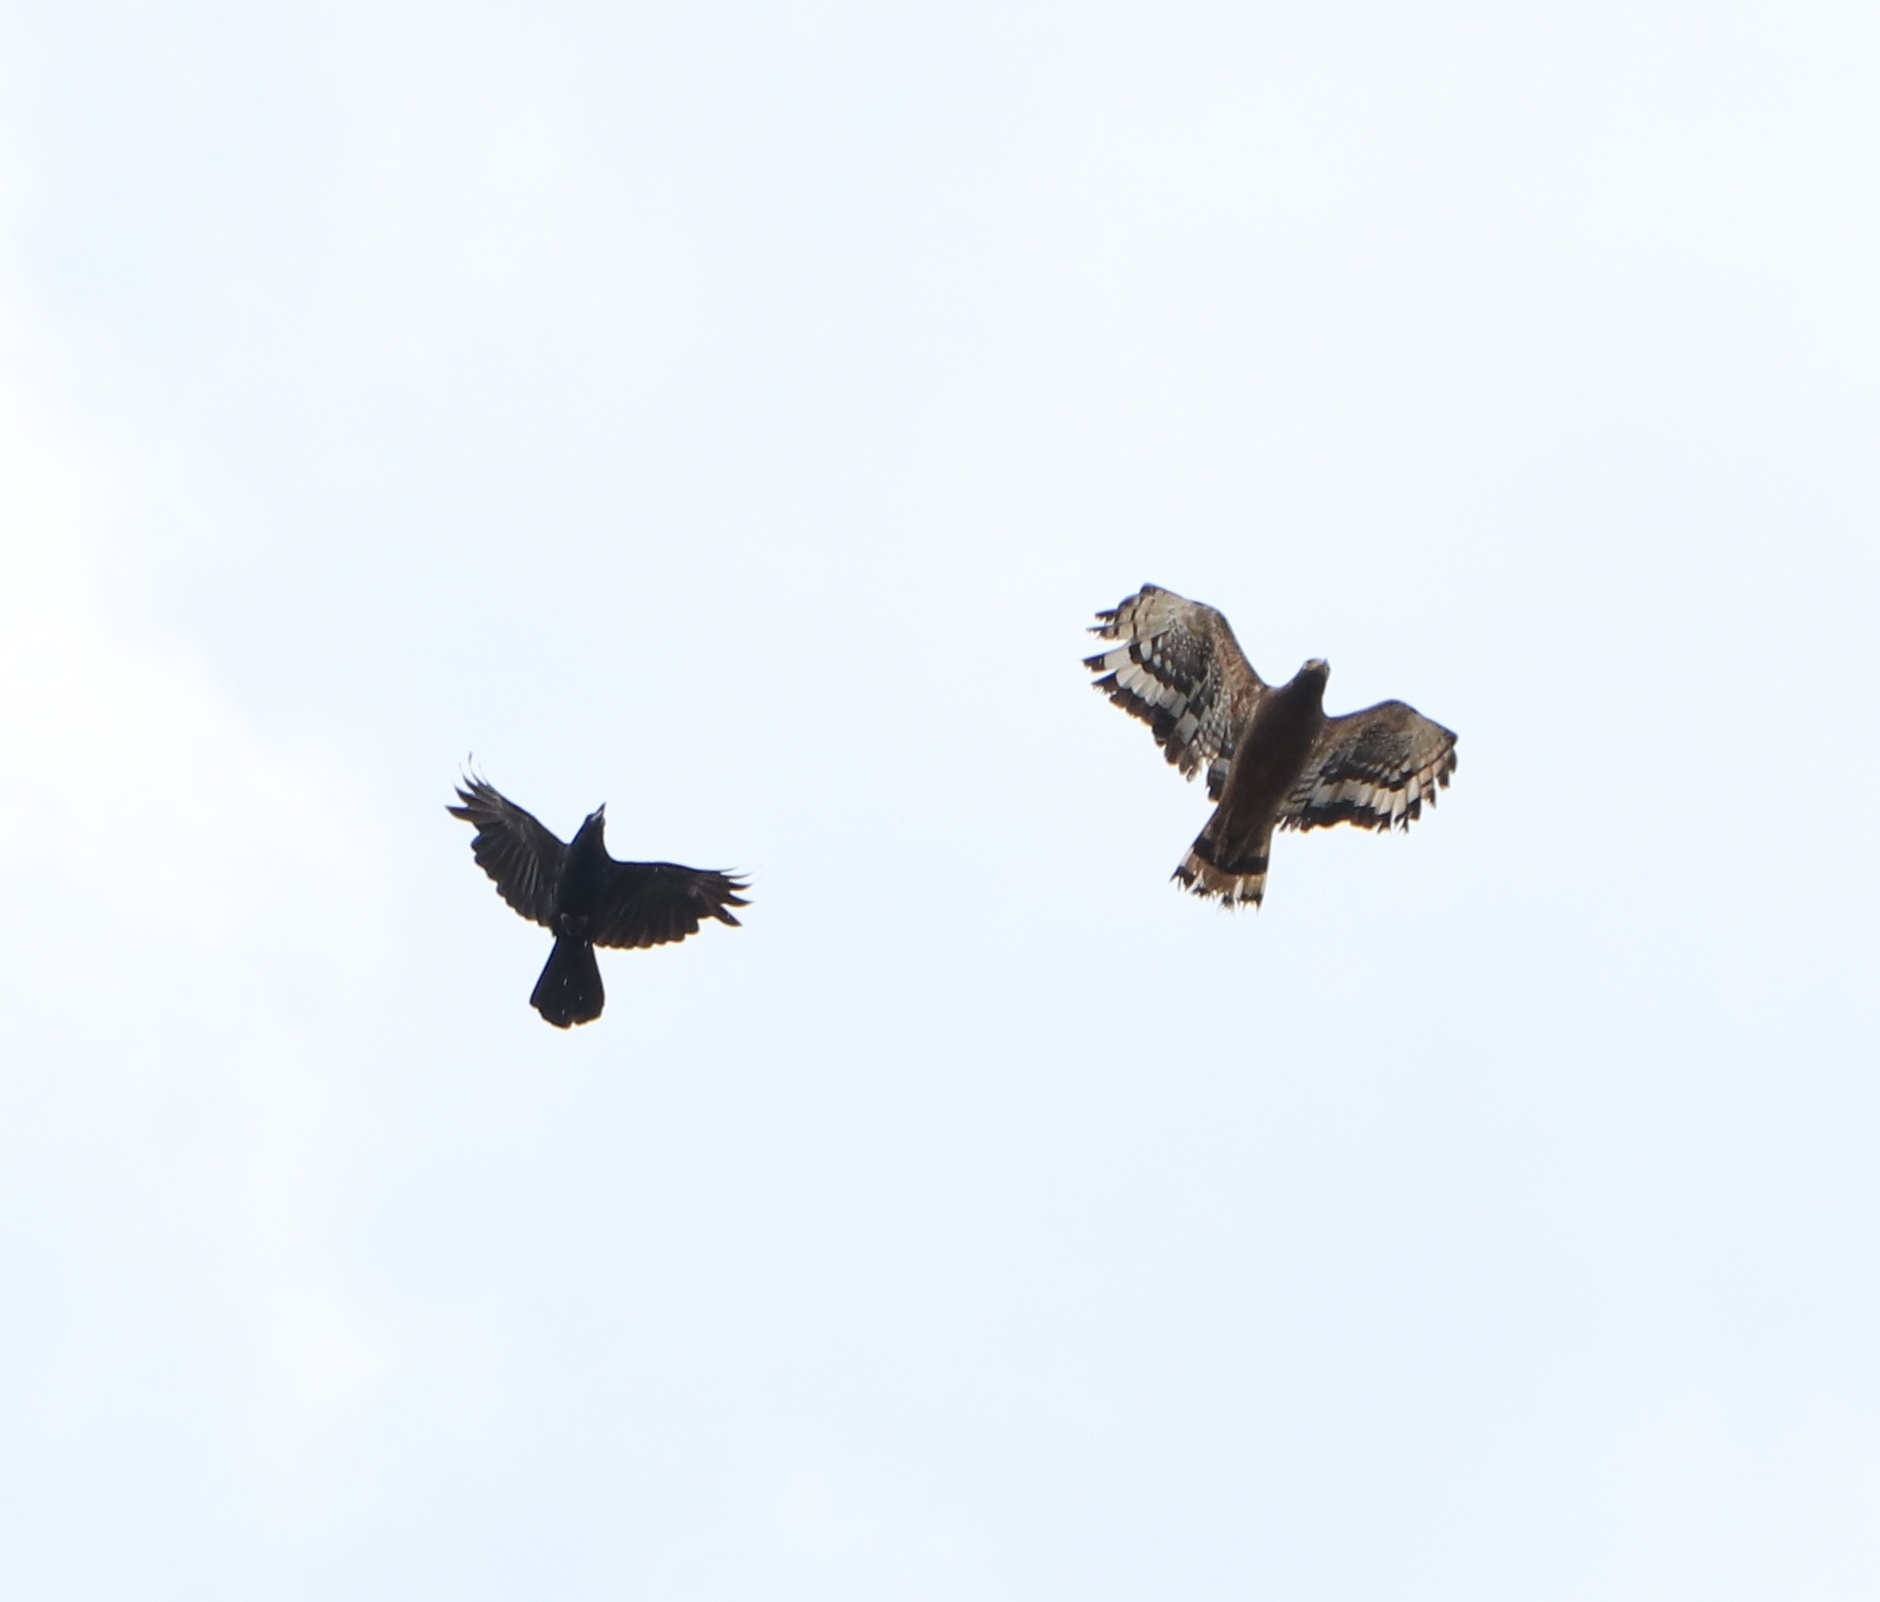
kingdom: Animalia
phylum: Chordata
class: Aves
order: Accipitriformes
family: Accipitridae
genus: Spilornis
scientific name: Spilornis cheela
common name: Crested serpent eagle
